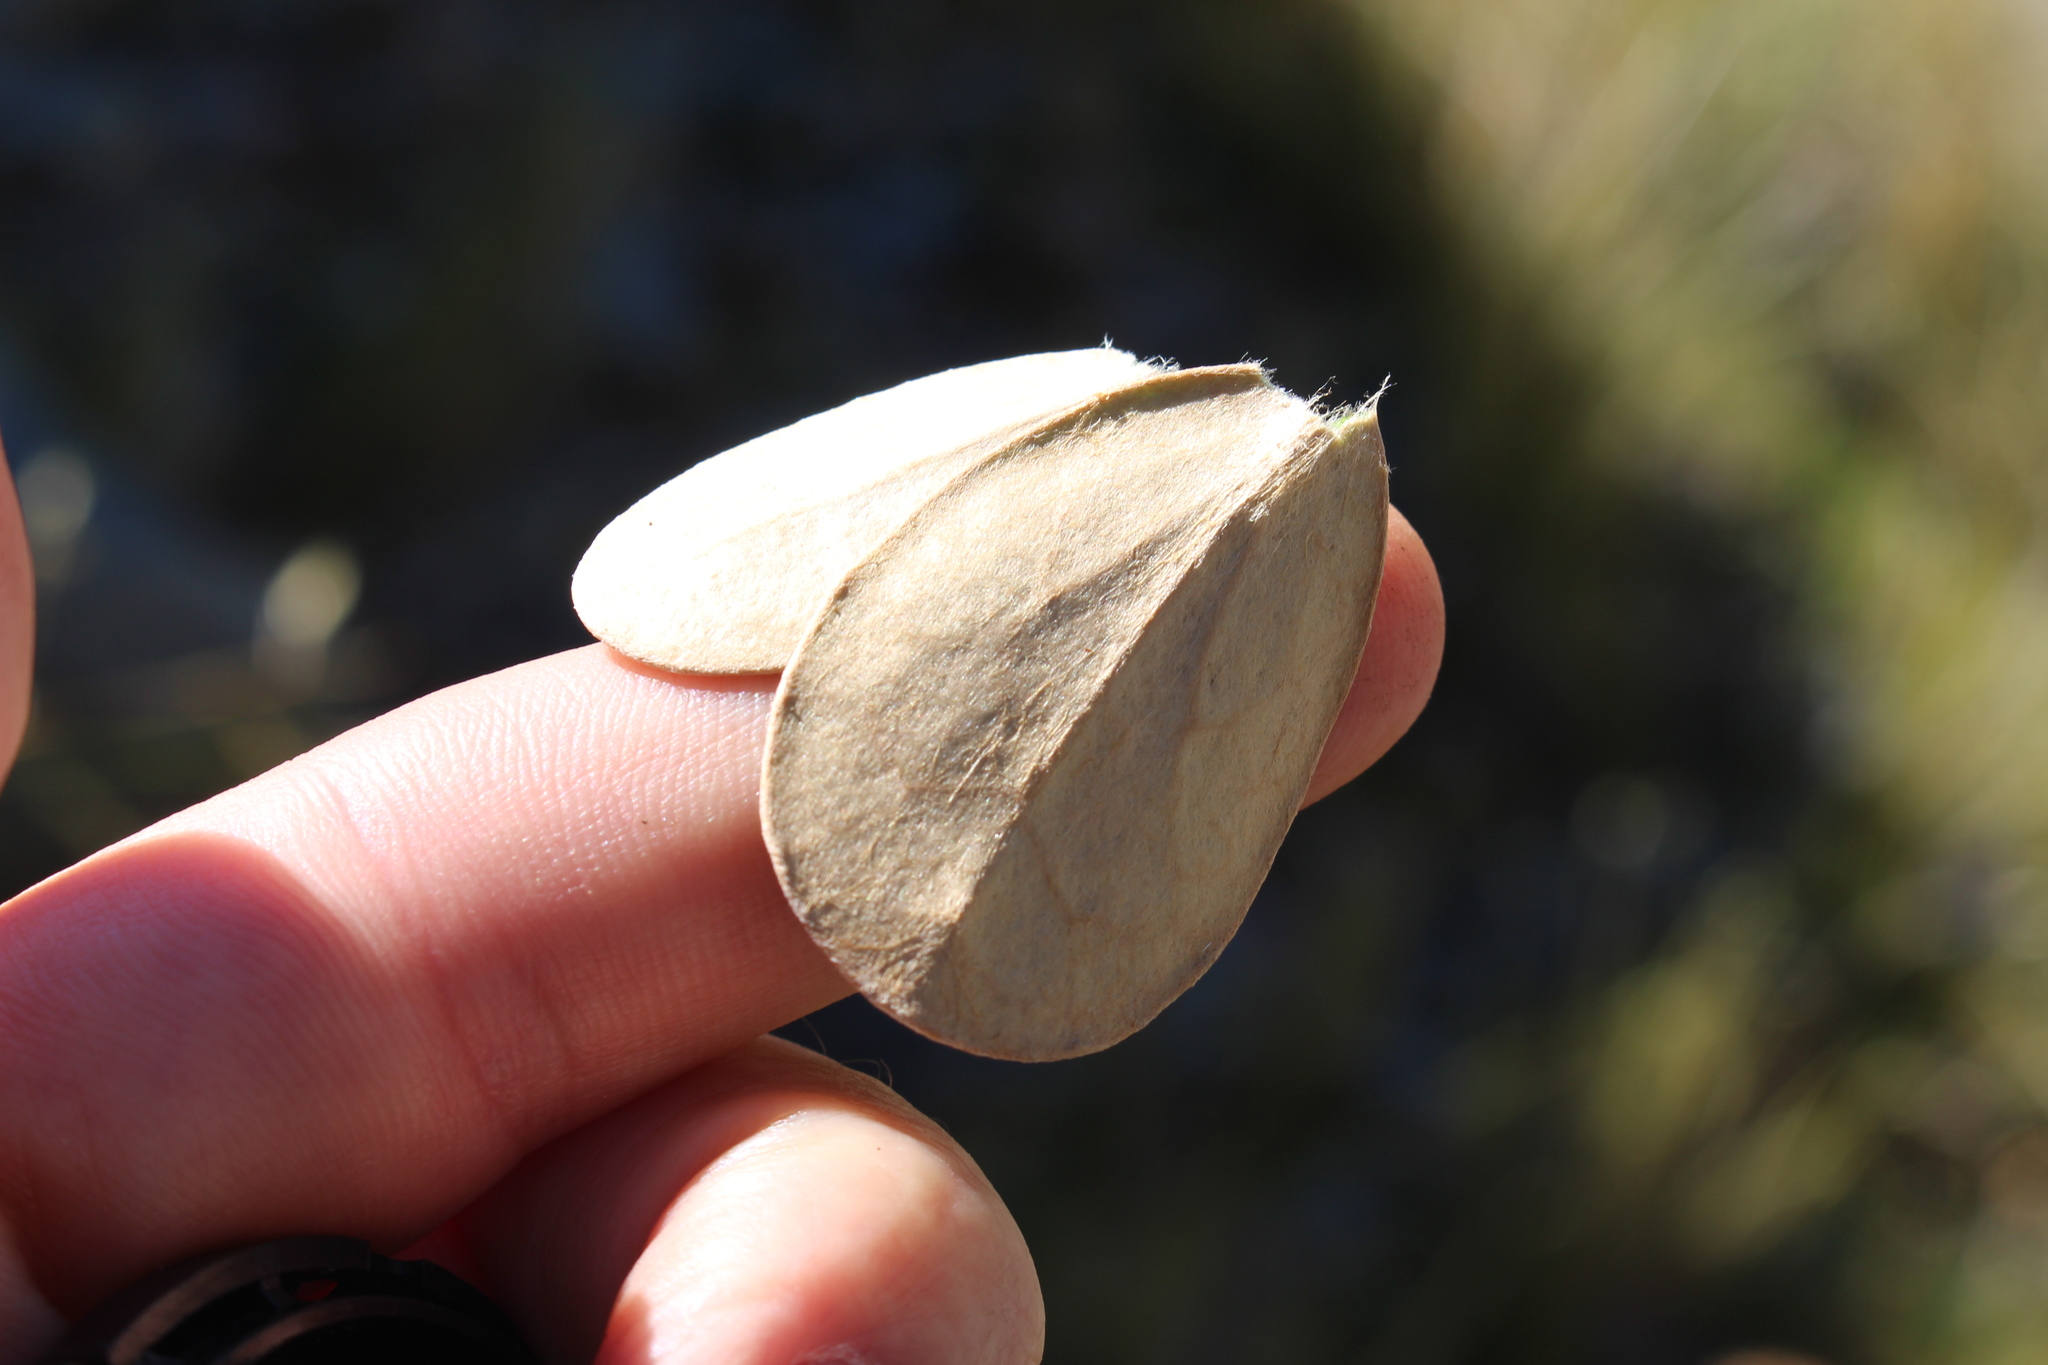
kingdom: Plantae
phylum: Tracheophyta
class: Magnoliopsida
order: Asterales
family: Asteraceae
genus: Brachyglottis
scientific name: Brachyglottis bidwillii
